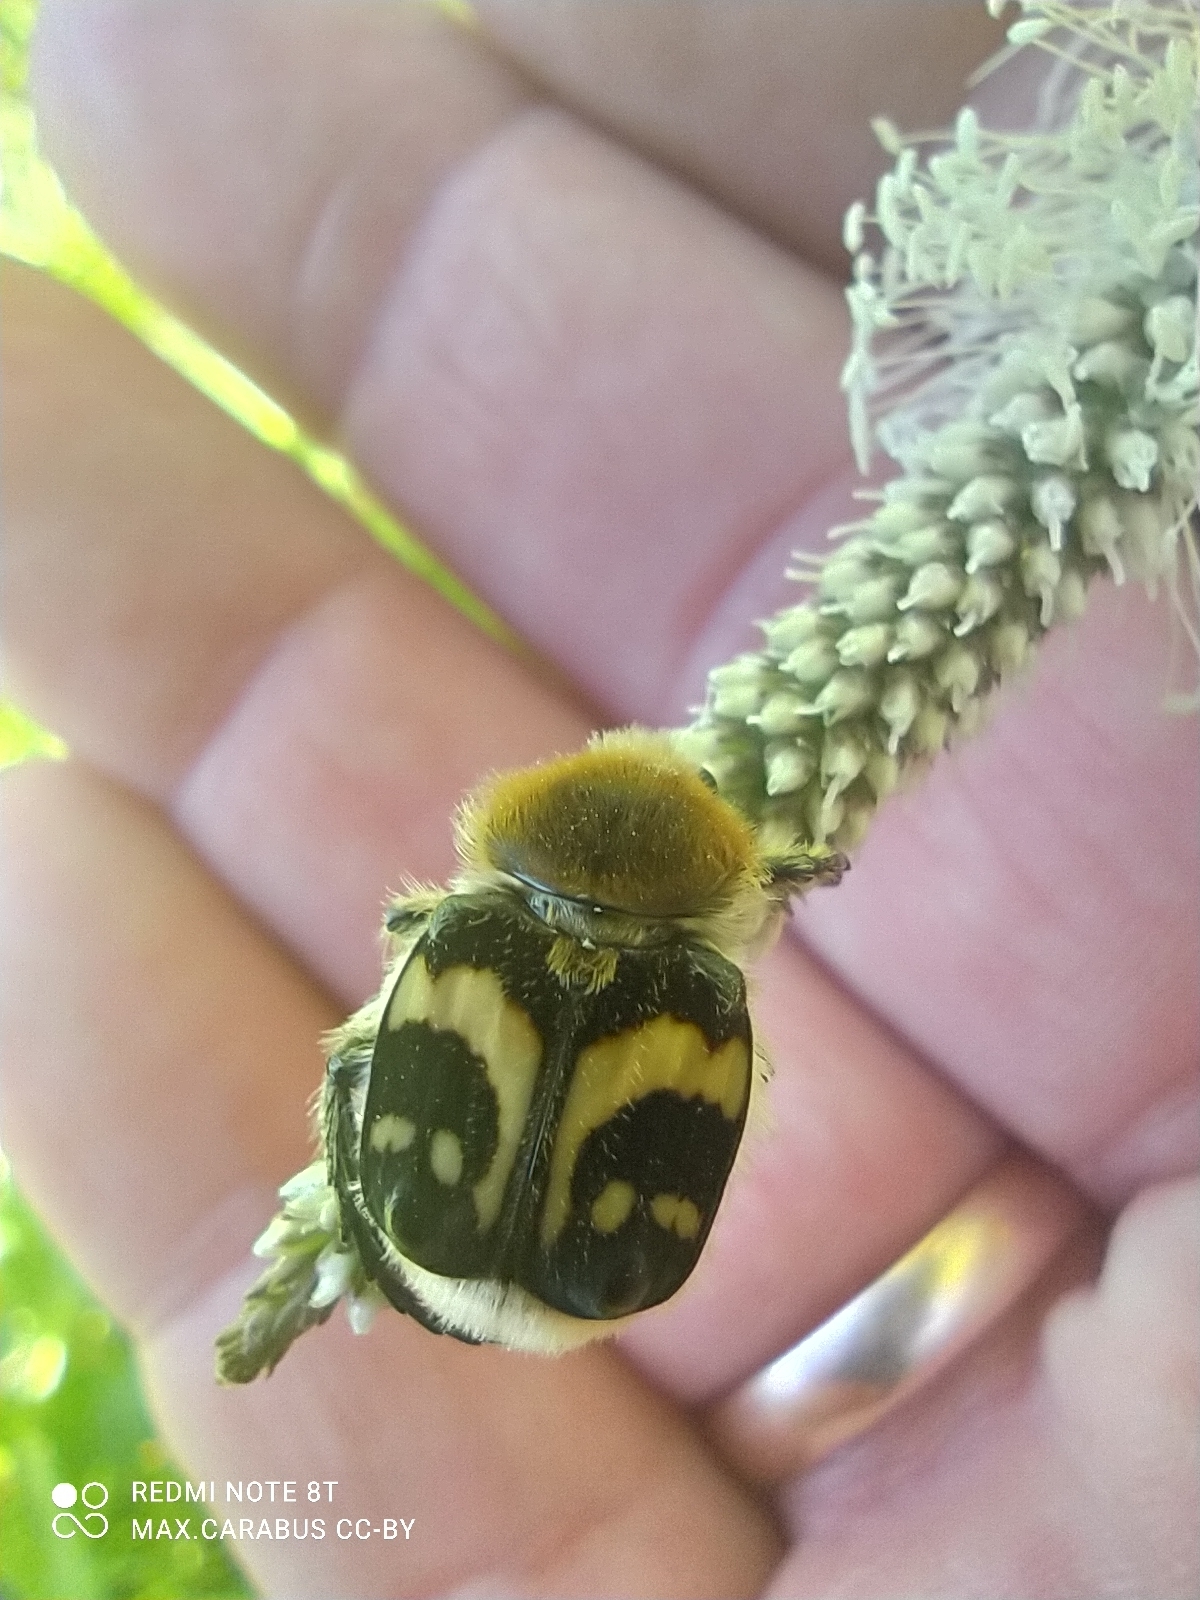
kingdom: Animalia
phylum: Arthropoda
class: Insecta
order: Coleoptera
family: Scarabaeidae
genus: Trichius
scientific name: Trichius fasciatus
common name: Bee beetle
